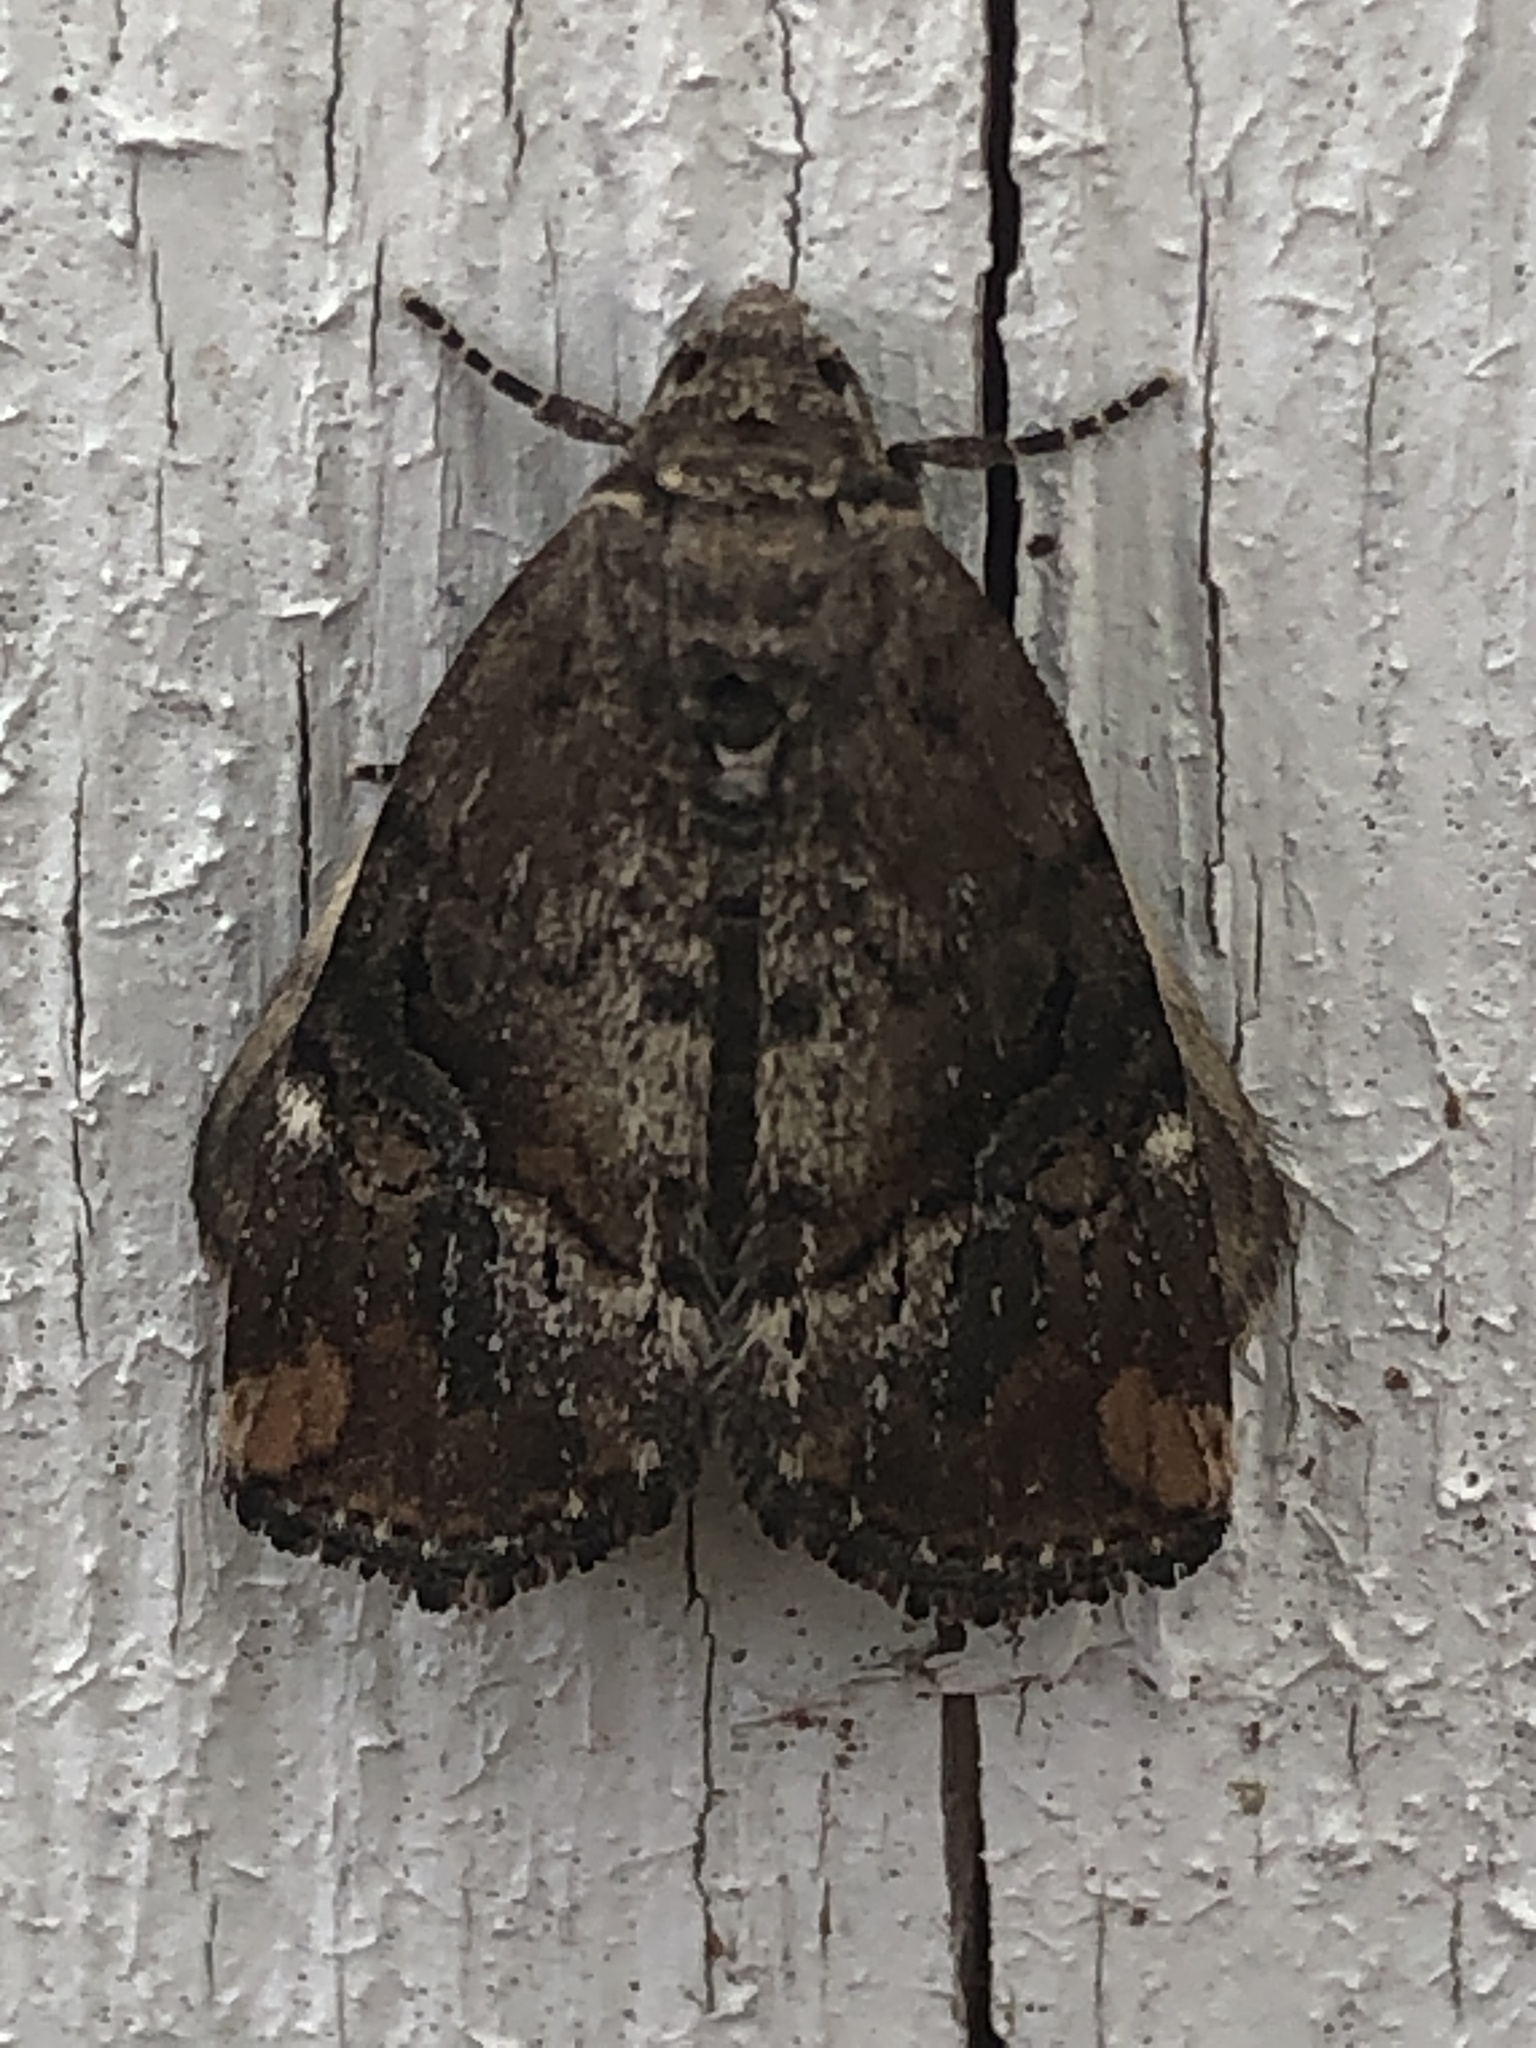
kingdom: Animalia
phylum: Arthropoda
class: Insecta
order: Lepidoptera
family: Noctuidae
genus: Elaphria
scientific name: Elaphria versicolor
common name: Fir harlequin
